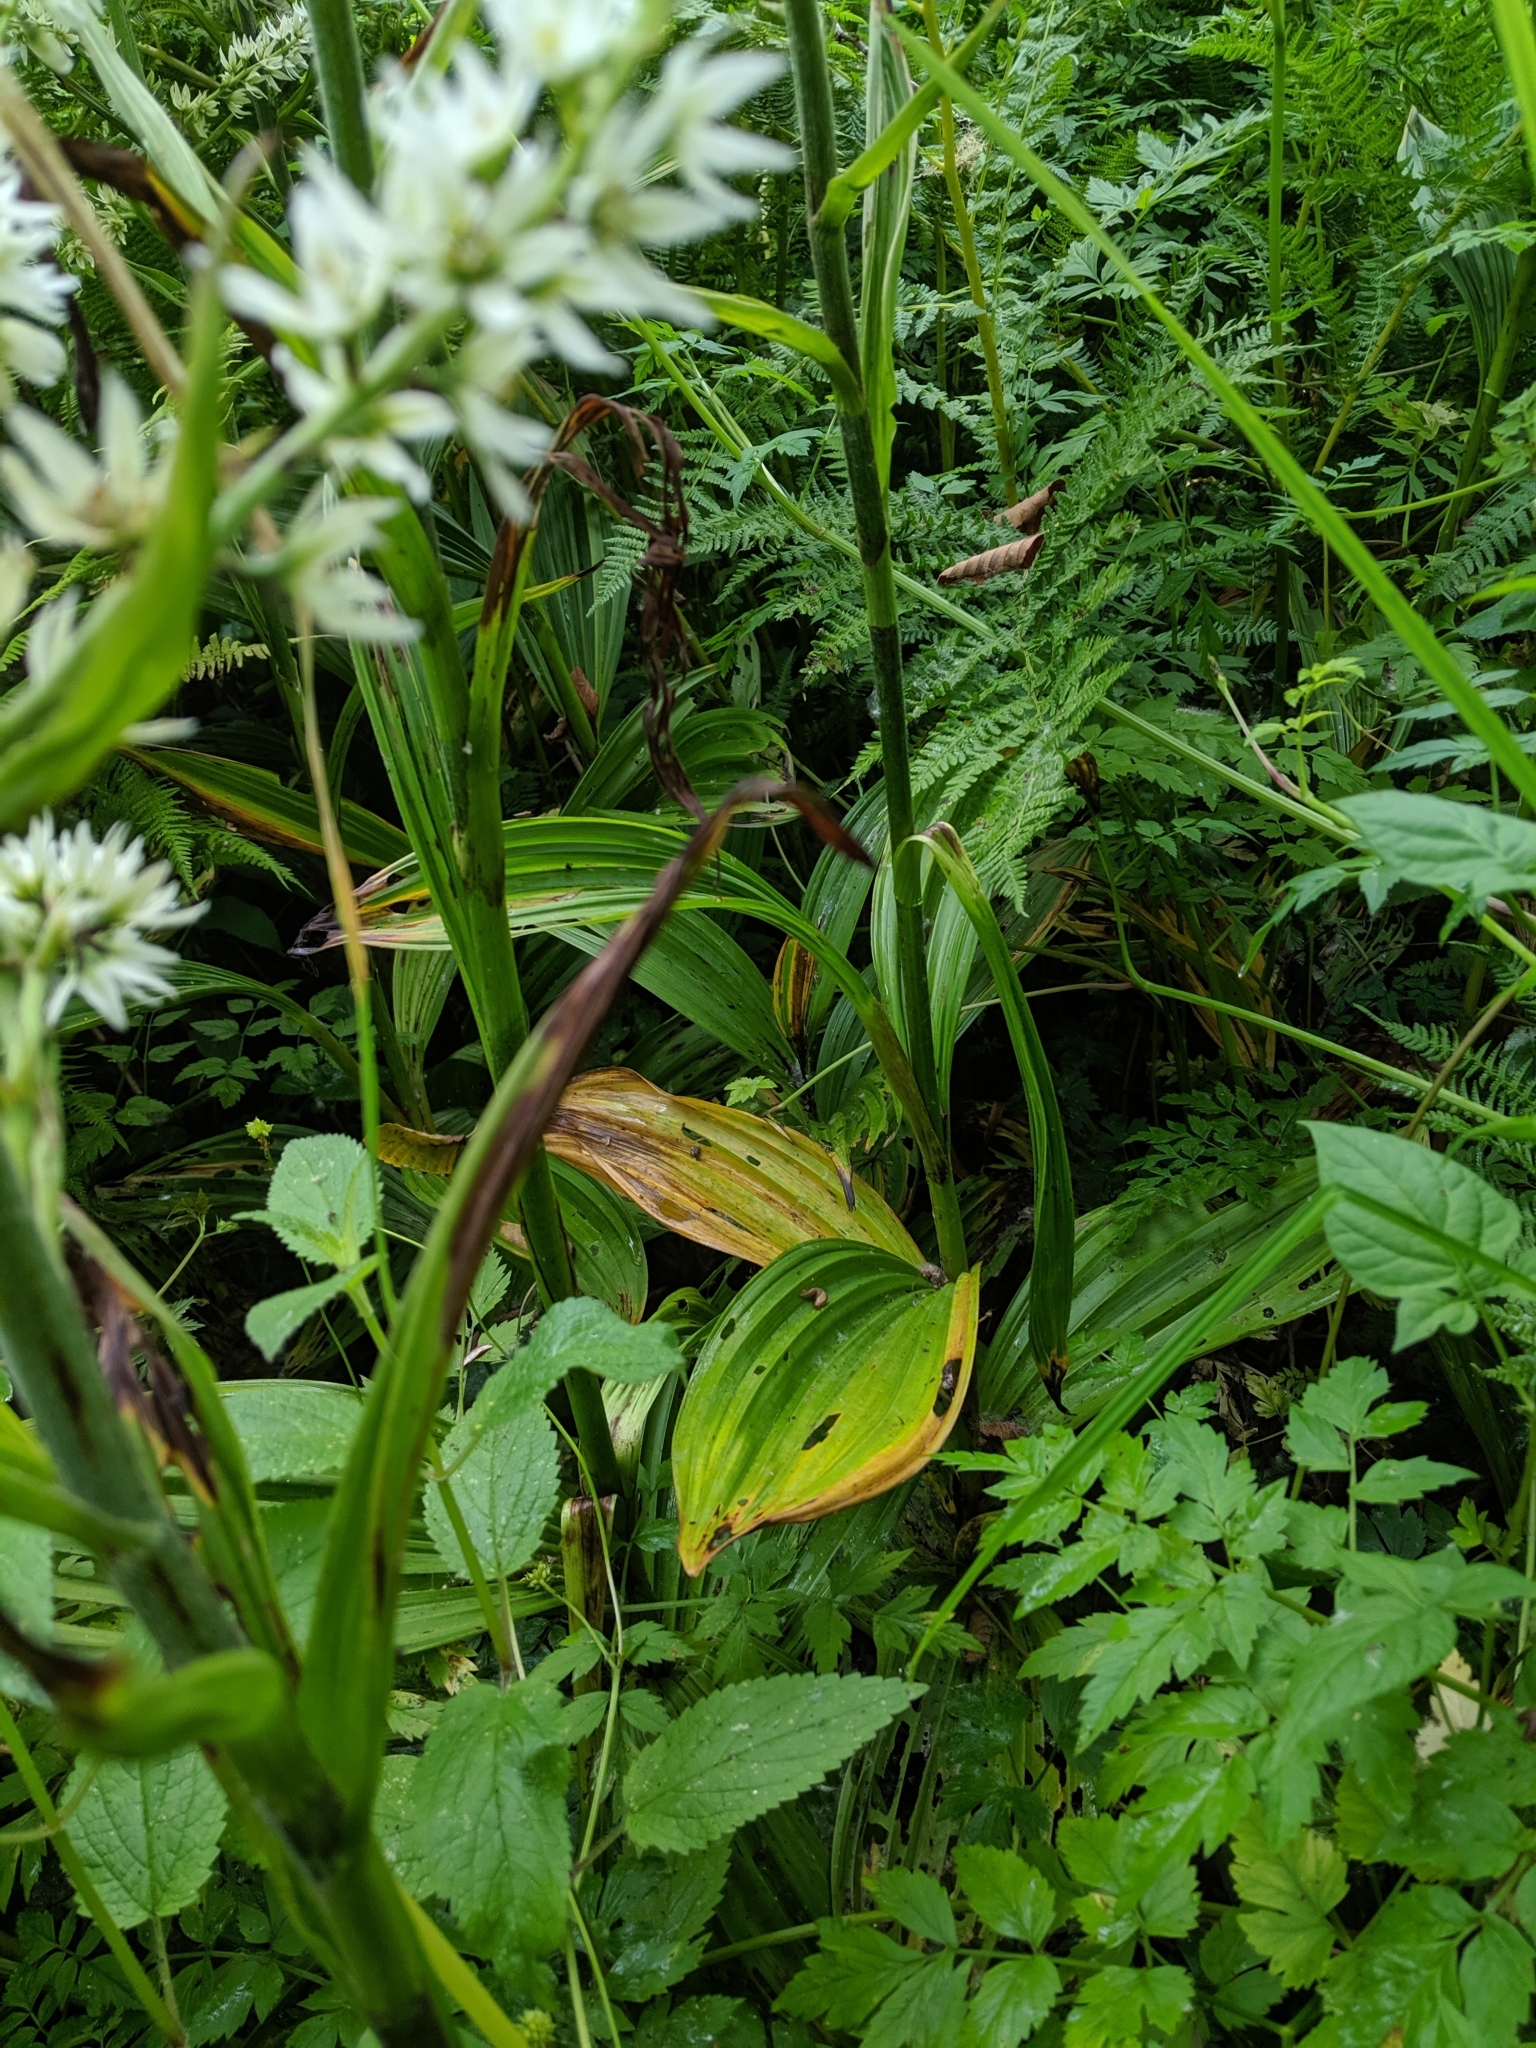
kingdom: Plantae
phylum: Tracheophyta
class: Liliopsida
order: Liliales
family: Melanthiaceae
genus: Veratrum
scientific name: Veratrum californicum
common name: California veratrum
